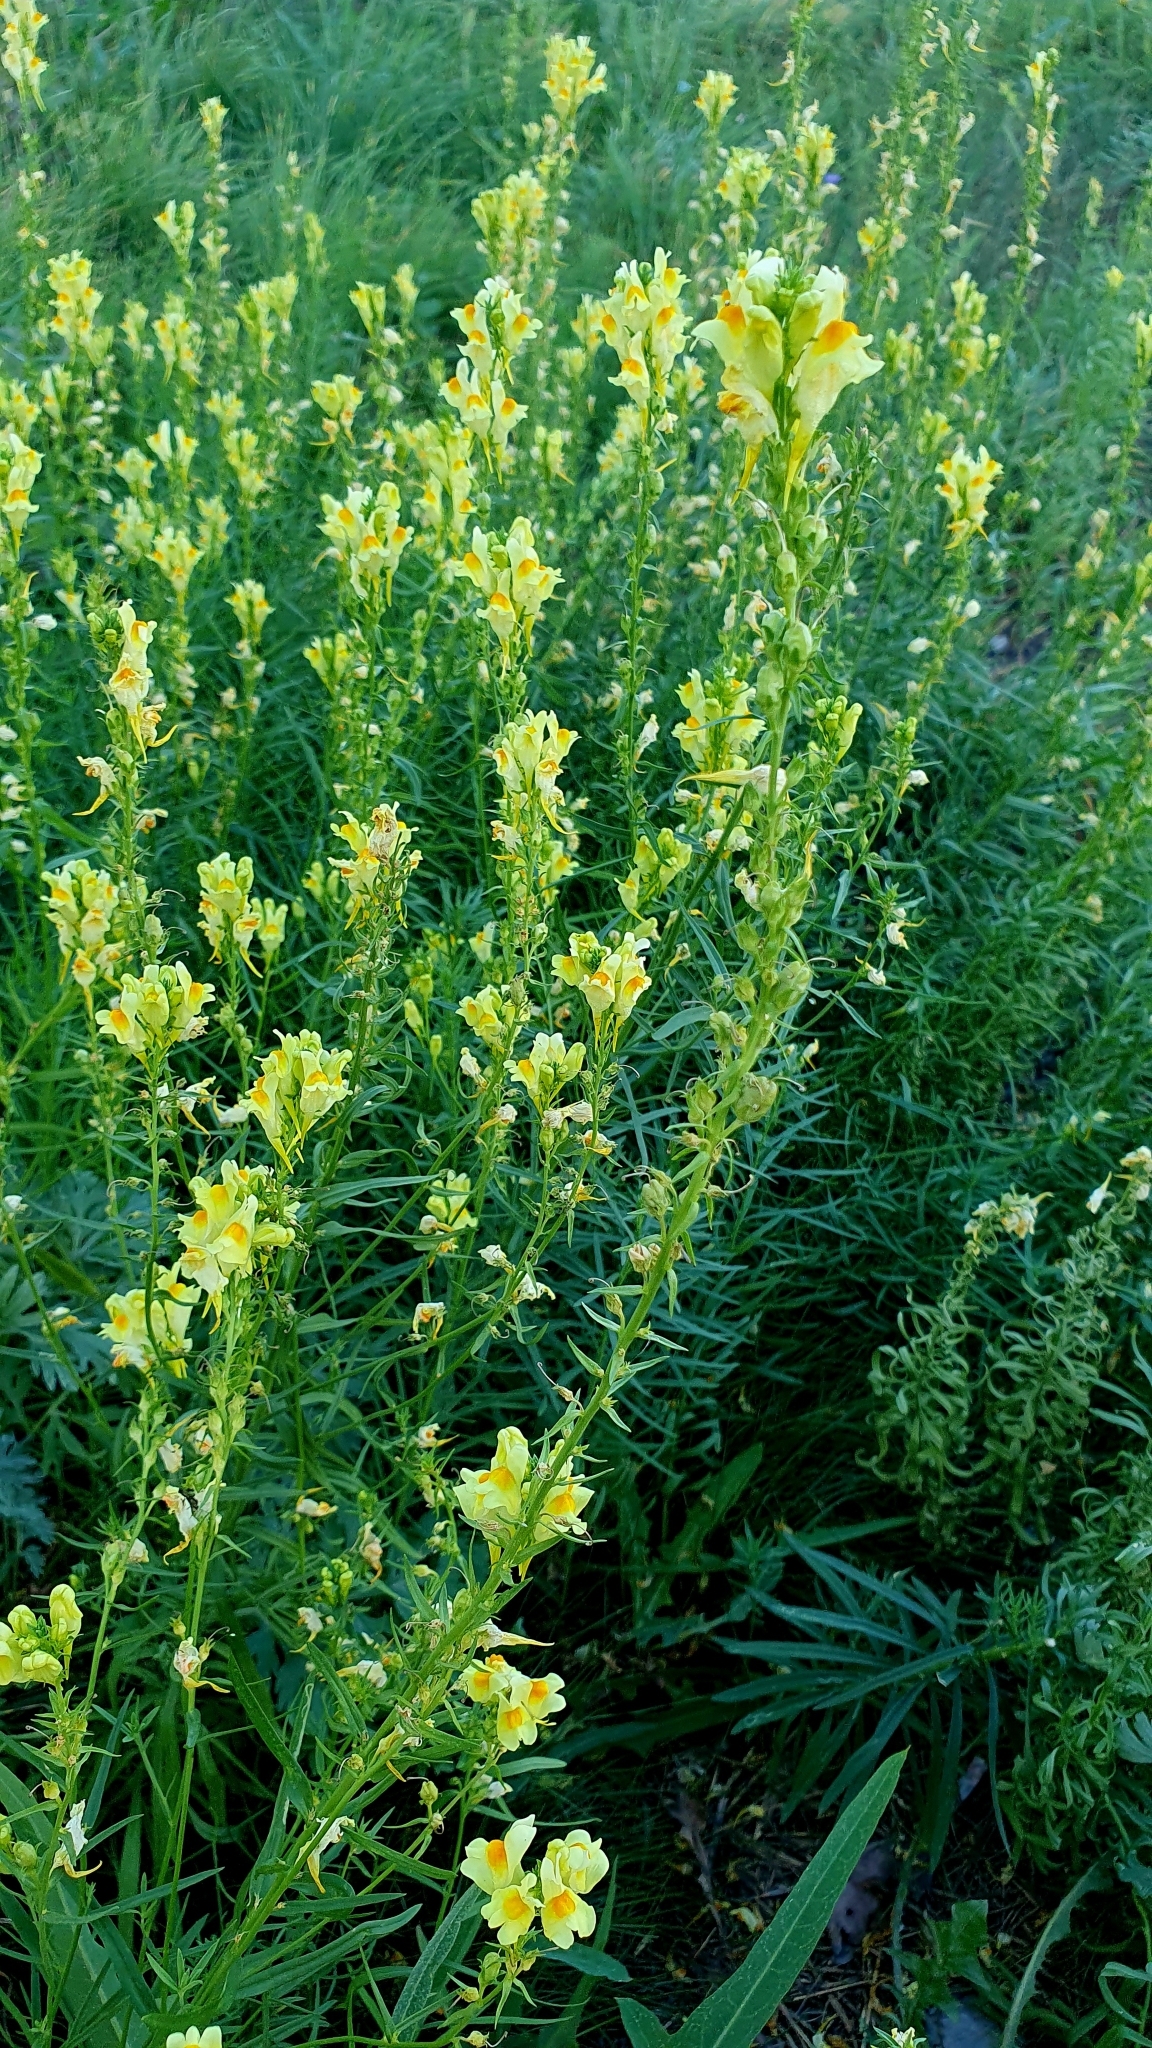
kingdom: Plantae
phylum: Tracheophyta
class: Magnoliopsida
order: Lamiales
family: Plantaginaceae
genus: Linaria
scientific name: Linaria vulgaris
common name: Butter and eggs
